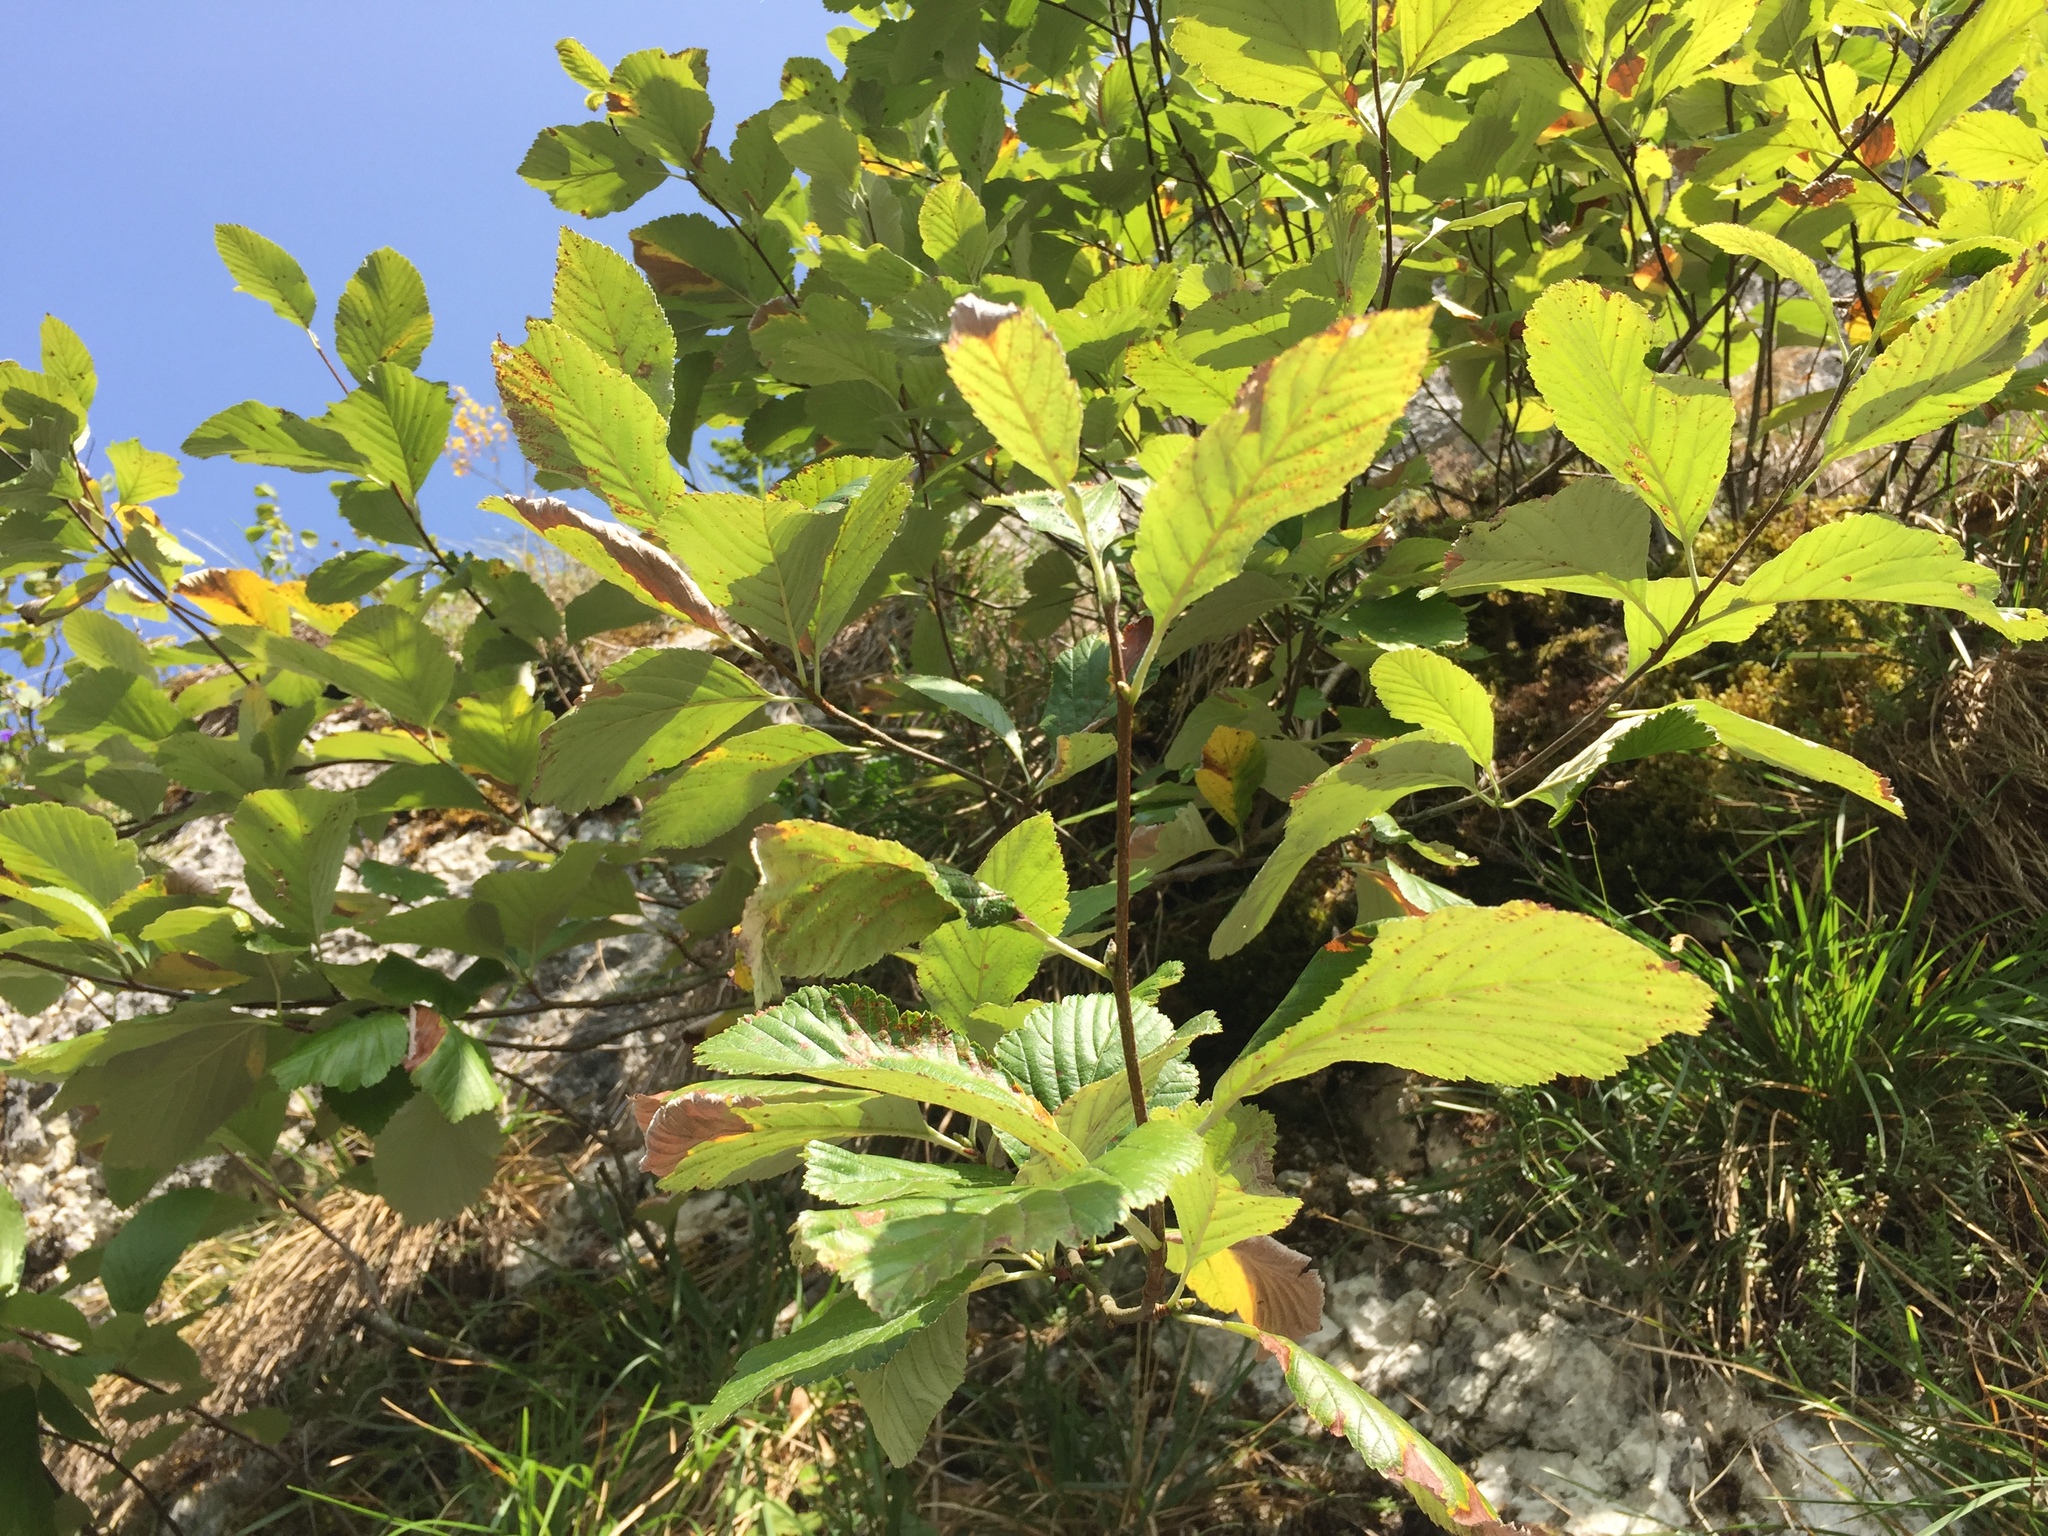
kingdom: Plantae
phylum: Tracheophyta
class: Magnoliopsida
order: Rosales
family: Rosaceae
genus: Aria
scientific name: Aria edulis
